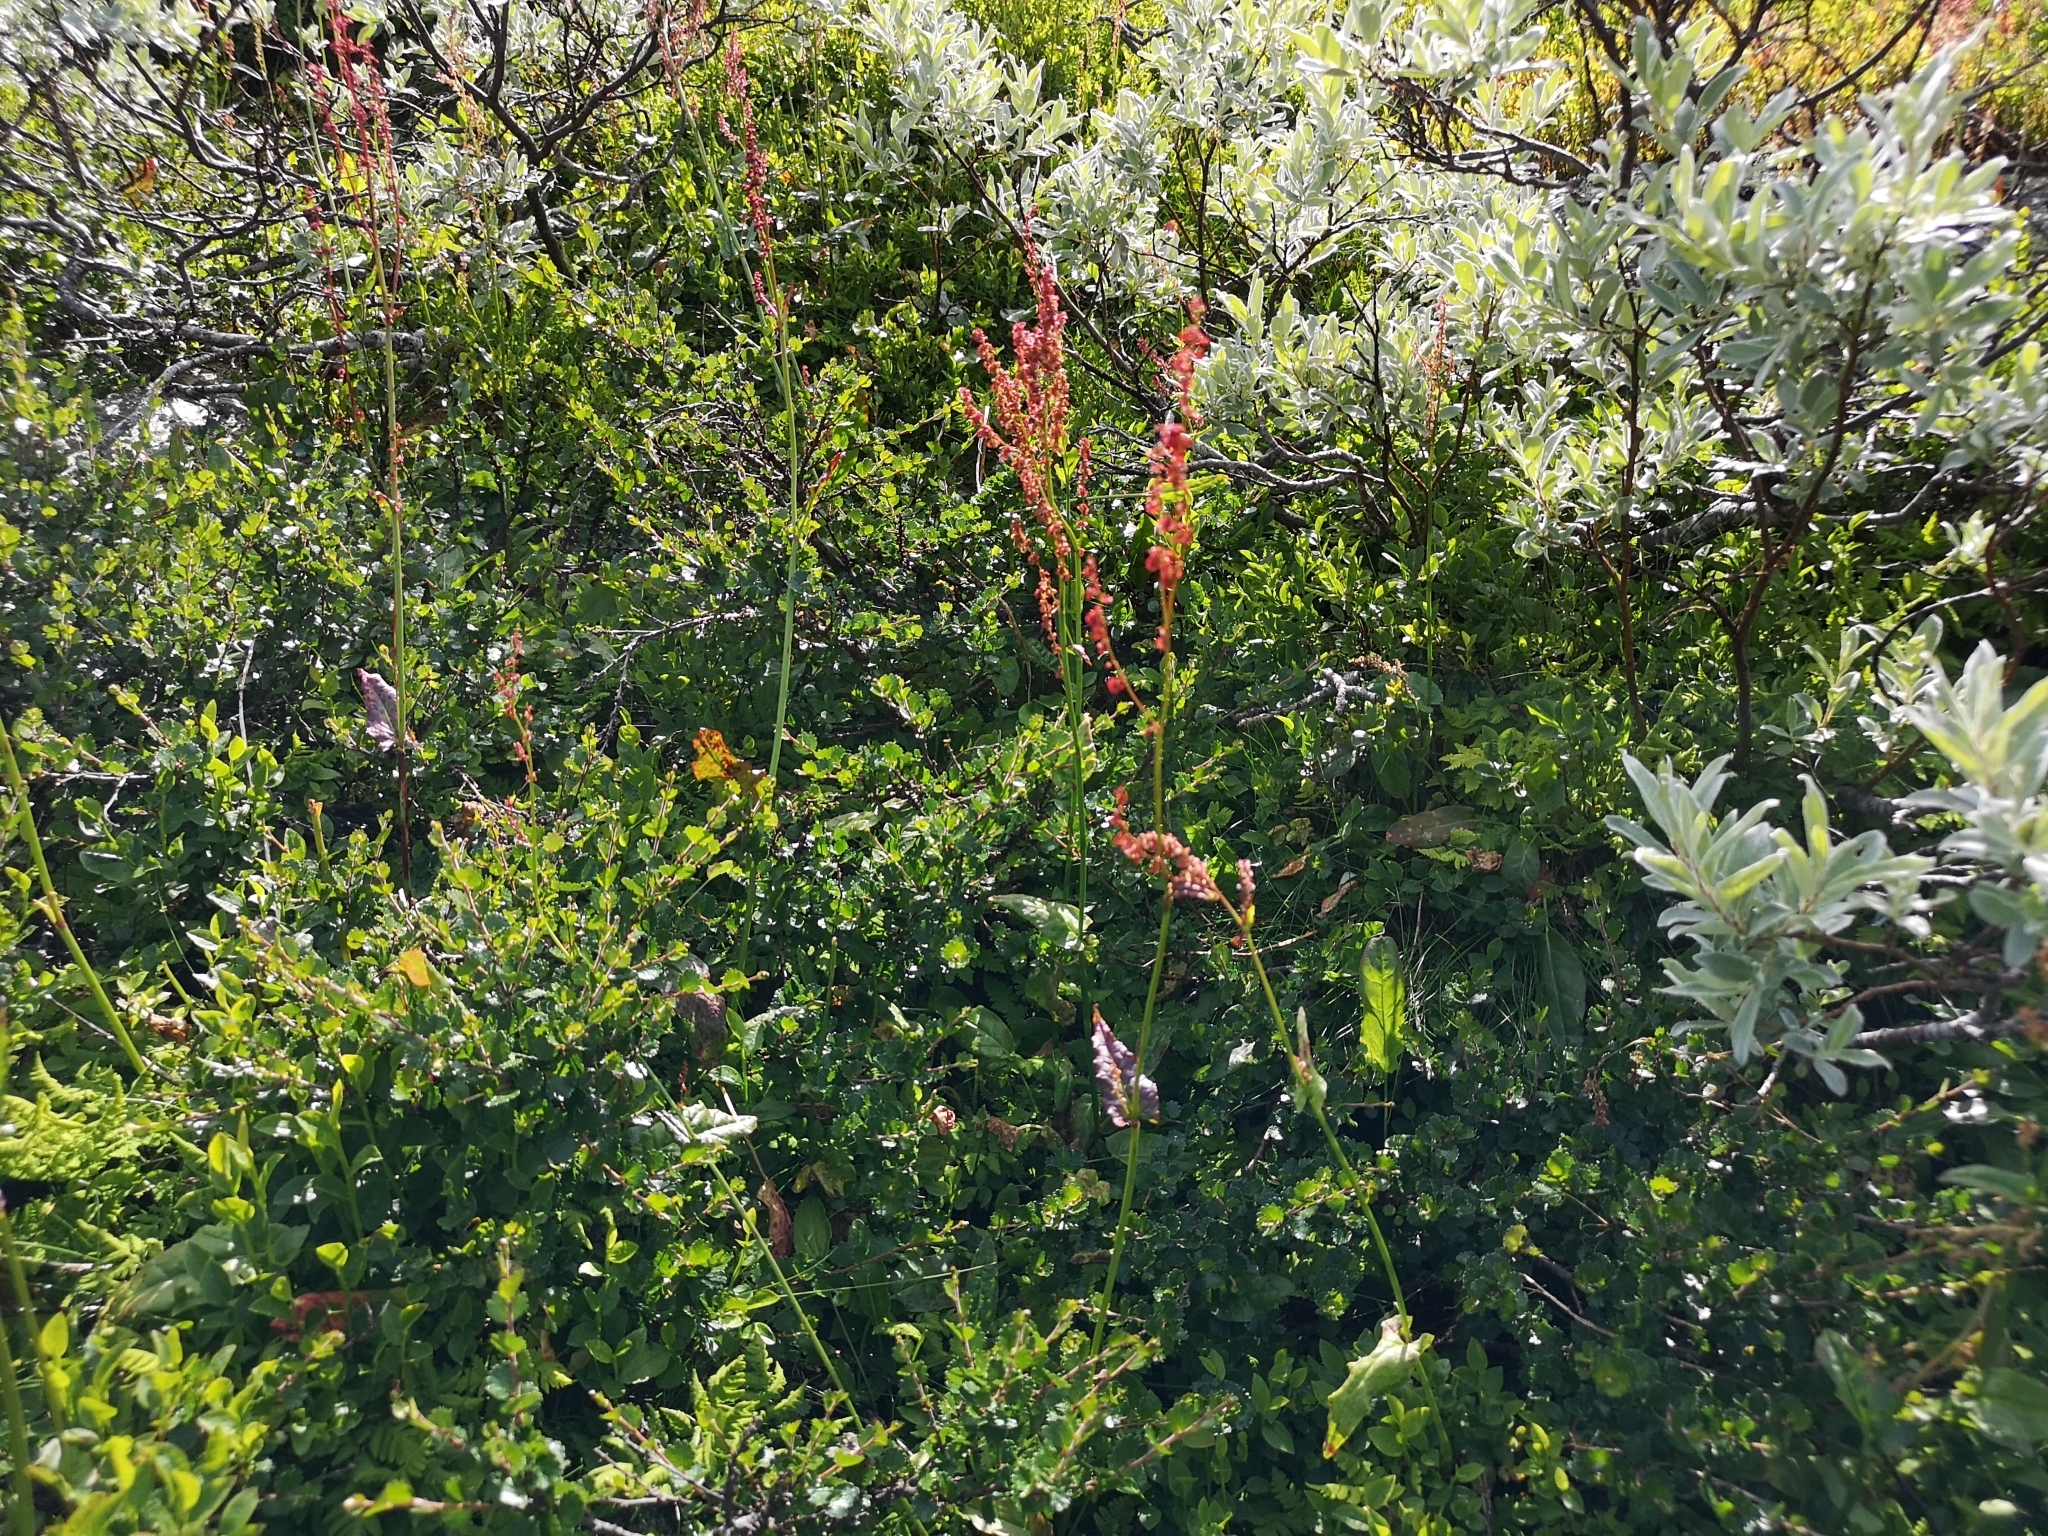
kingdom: Plantae
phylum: Tracheophyta
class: Magnoliopsida
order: Caryophyllales
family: Polygonaceae
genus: Rumex
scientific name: Rumex acetosa
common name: Garden sorrel
